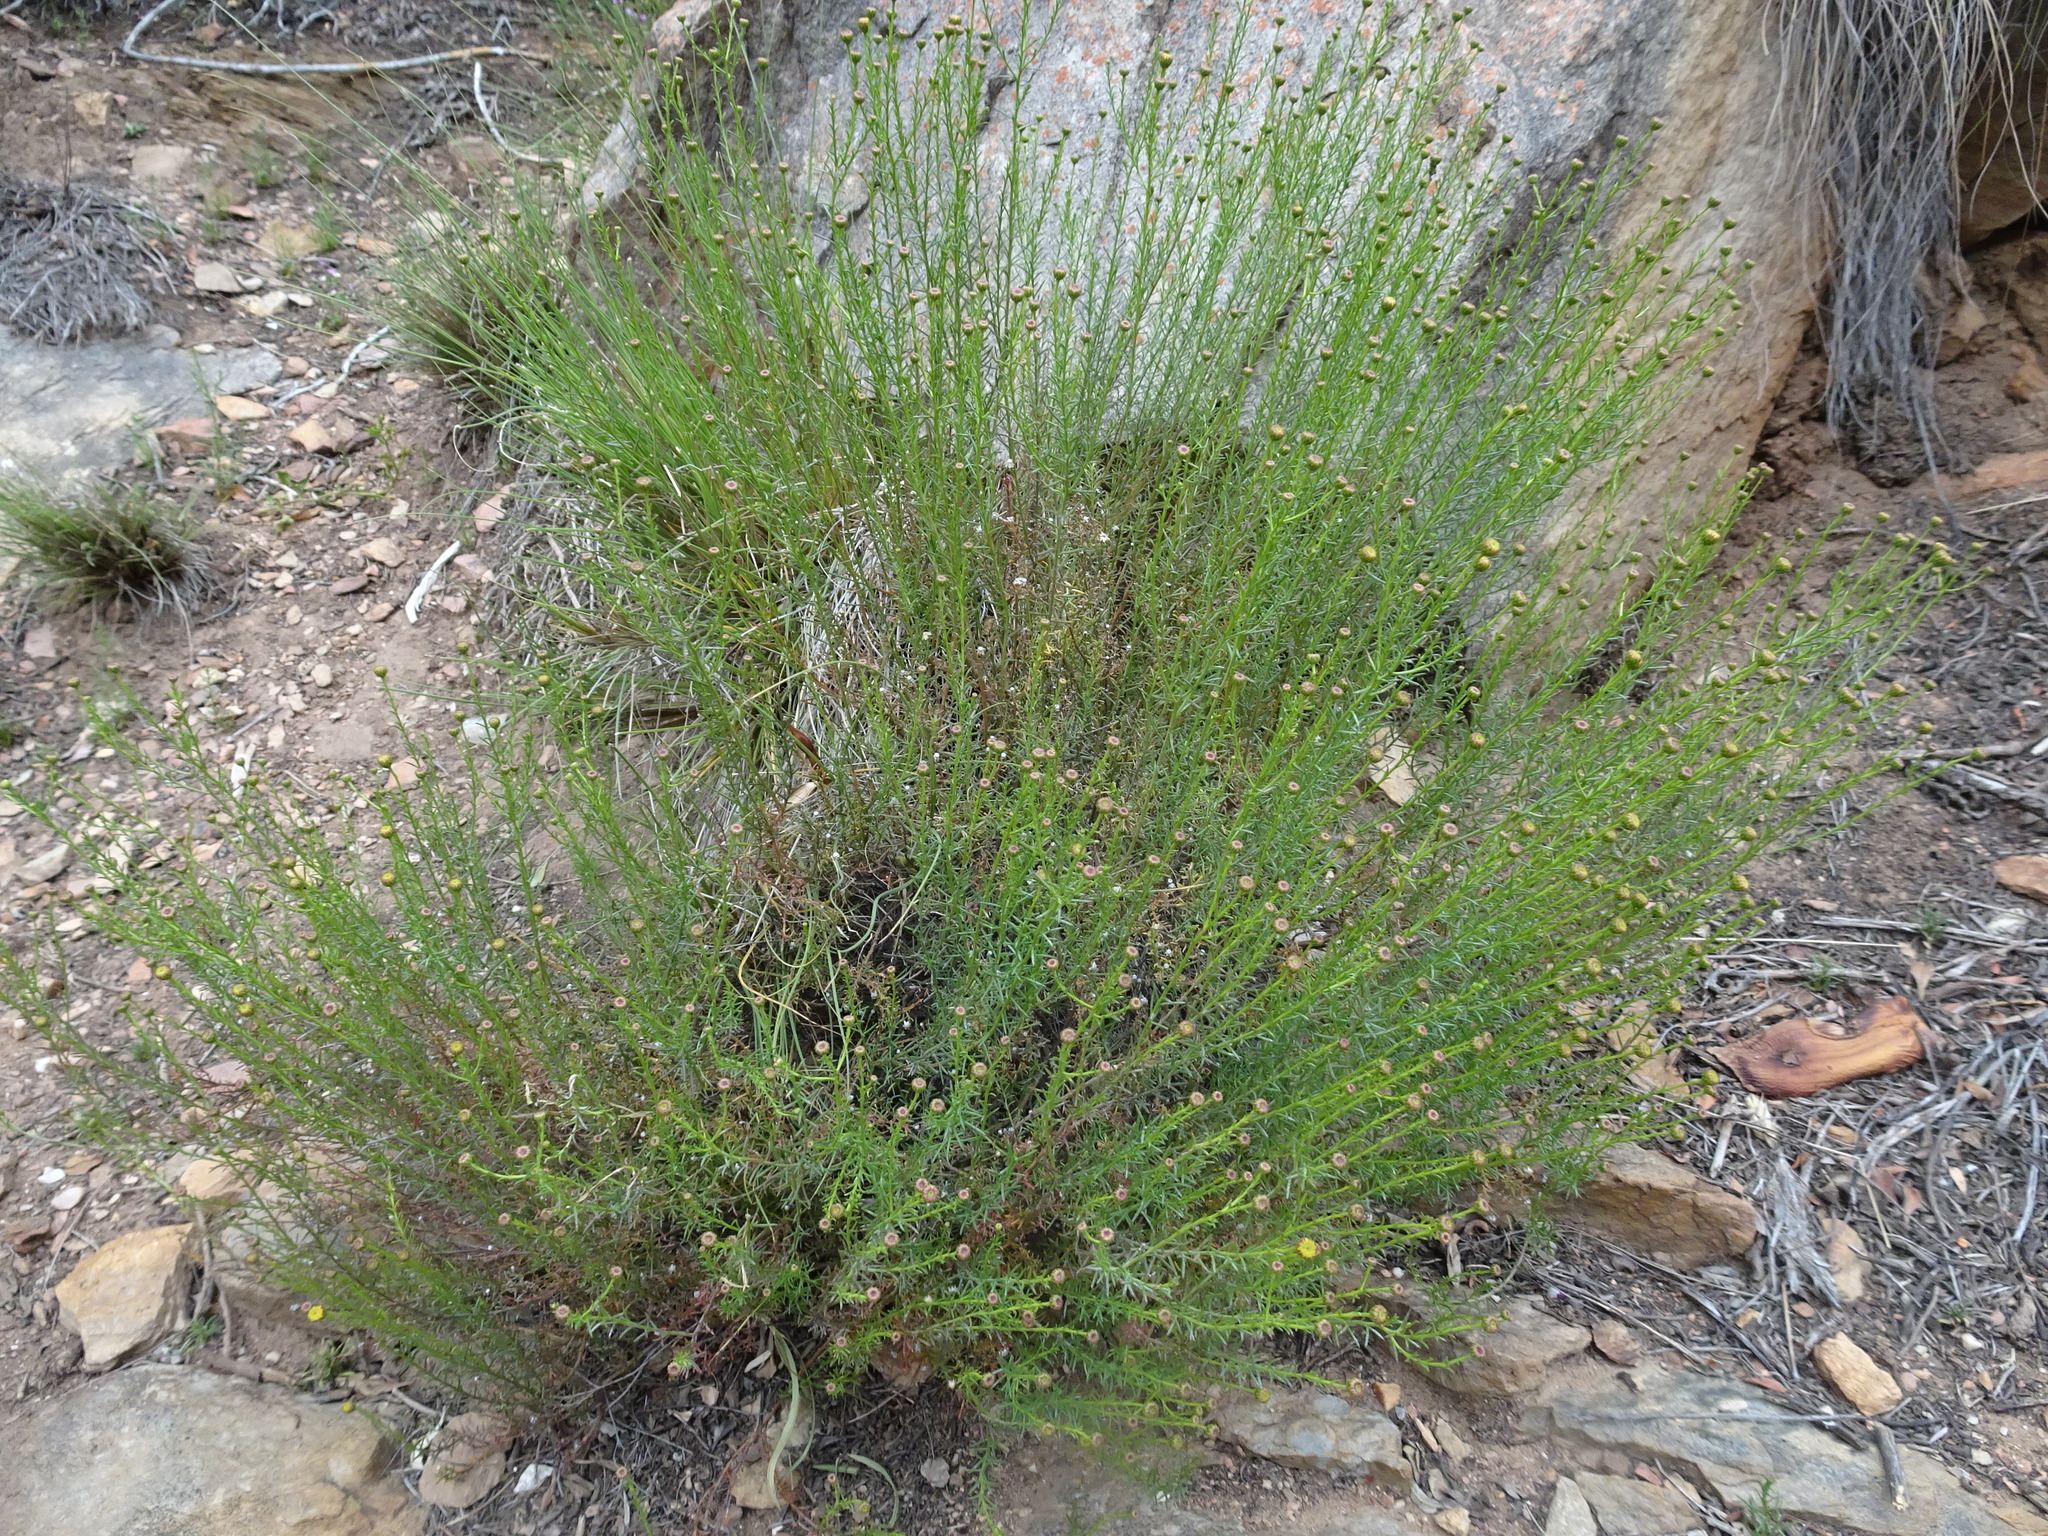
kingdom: Plantae
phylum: Tracheophyta
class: Magnoliopsida
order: Asterales
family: Asteraceae
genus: Chrysocoma
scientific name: Chrysocoma ciliata
